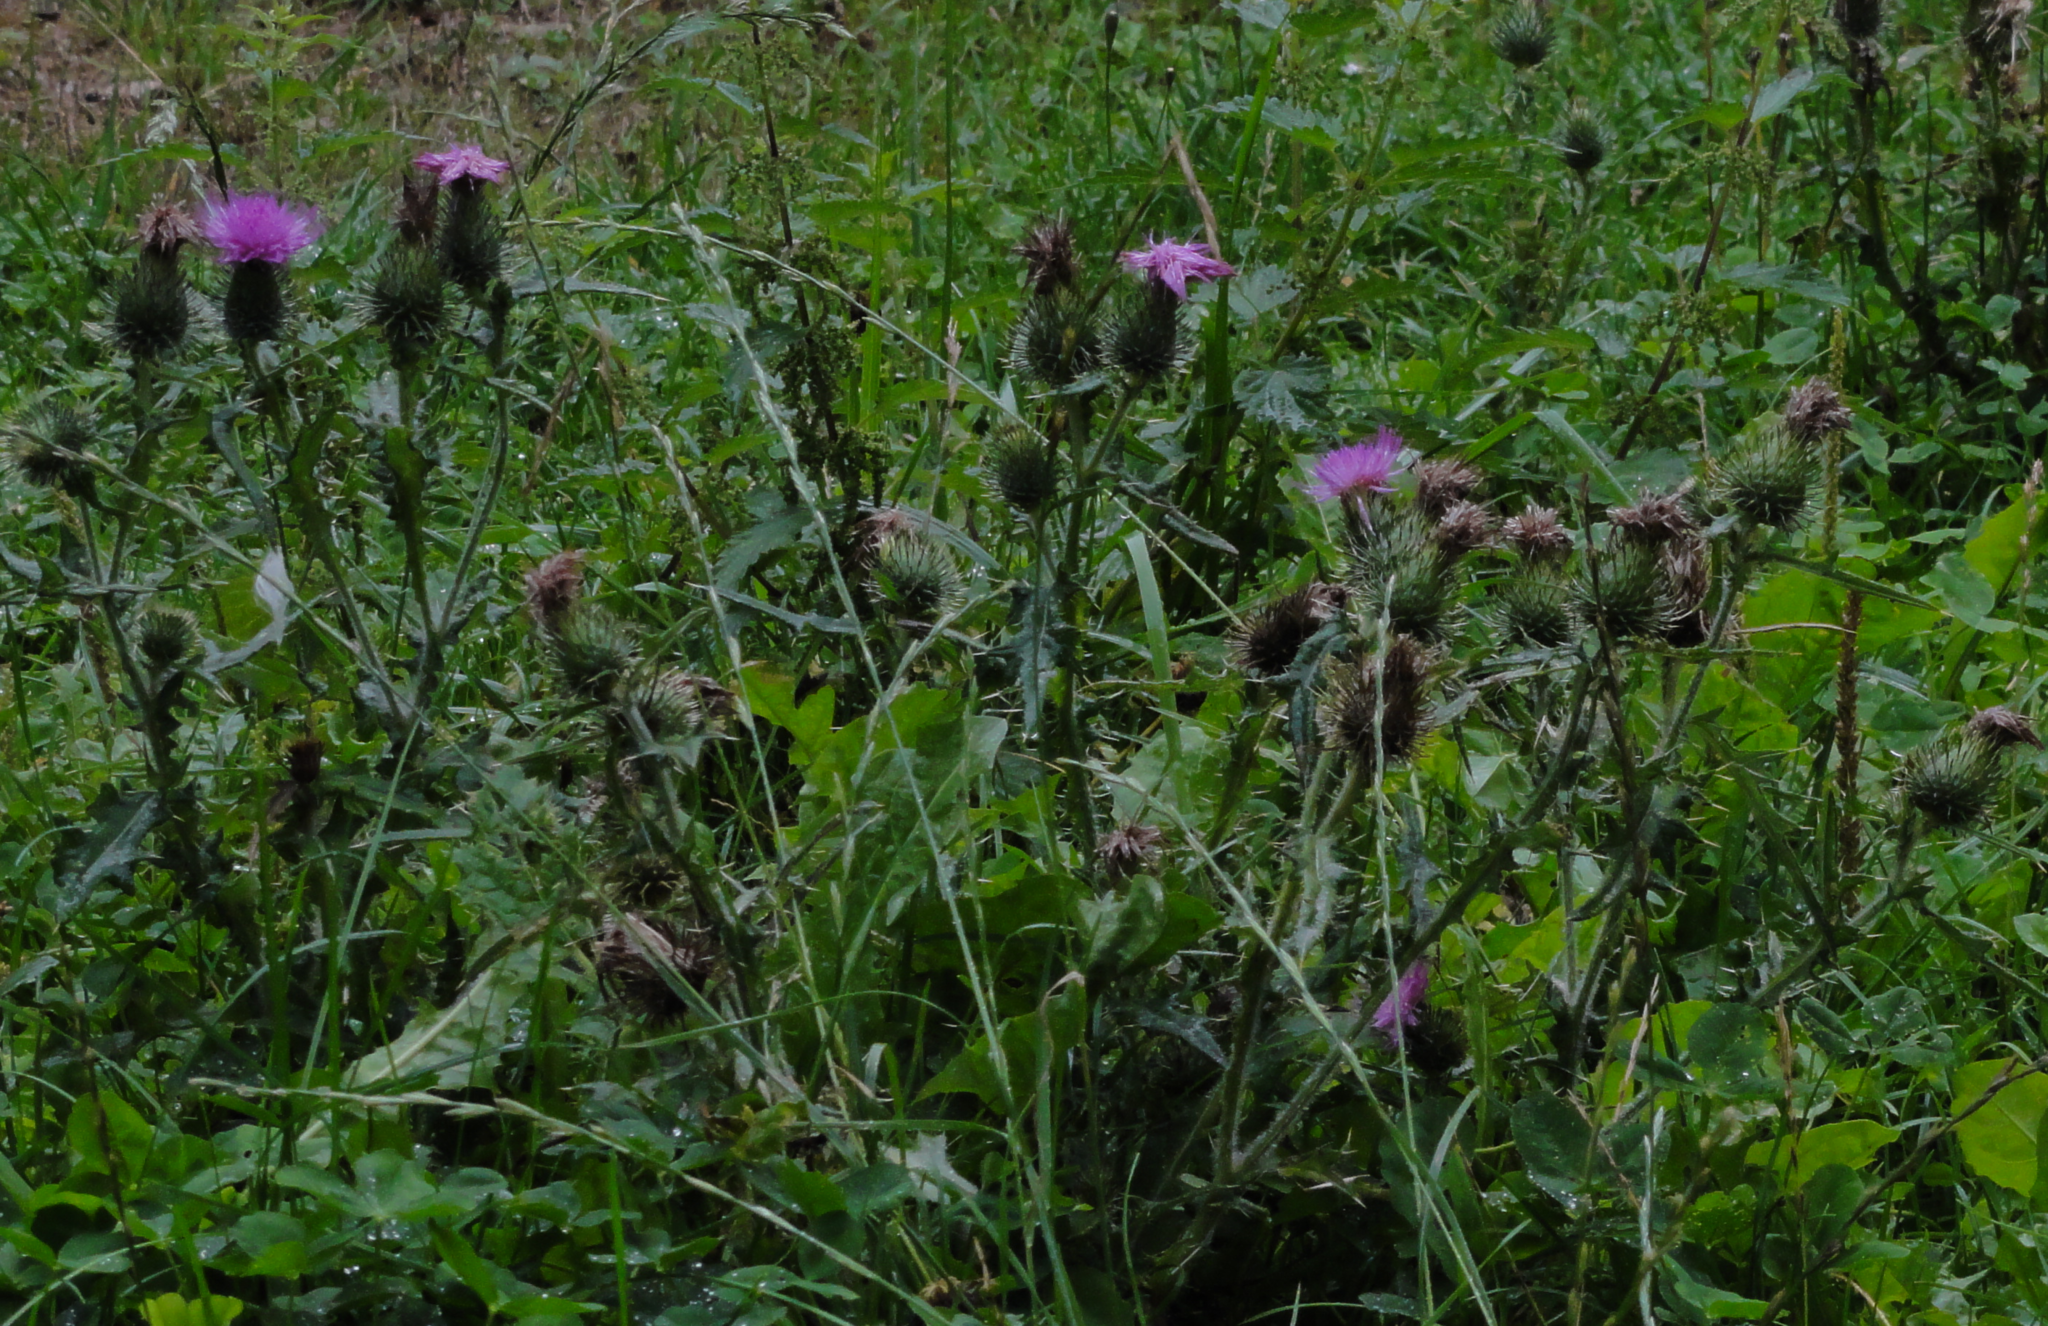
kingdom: Plantae
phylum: Tracheophyta
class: Magnoliopsida
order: Asterales
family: Asteraceae
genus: Cirsium
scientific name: Cirsium vulgare
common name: Bull thistle
